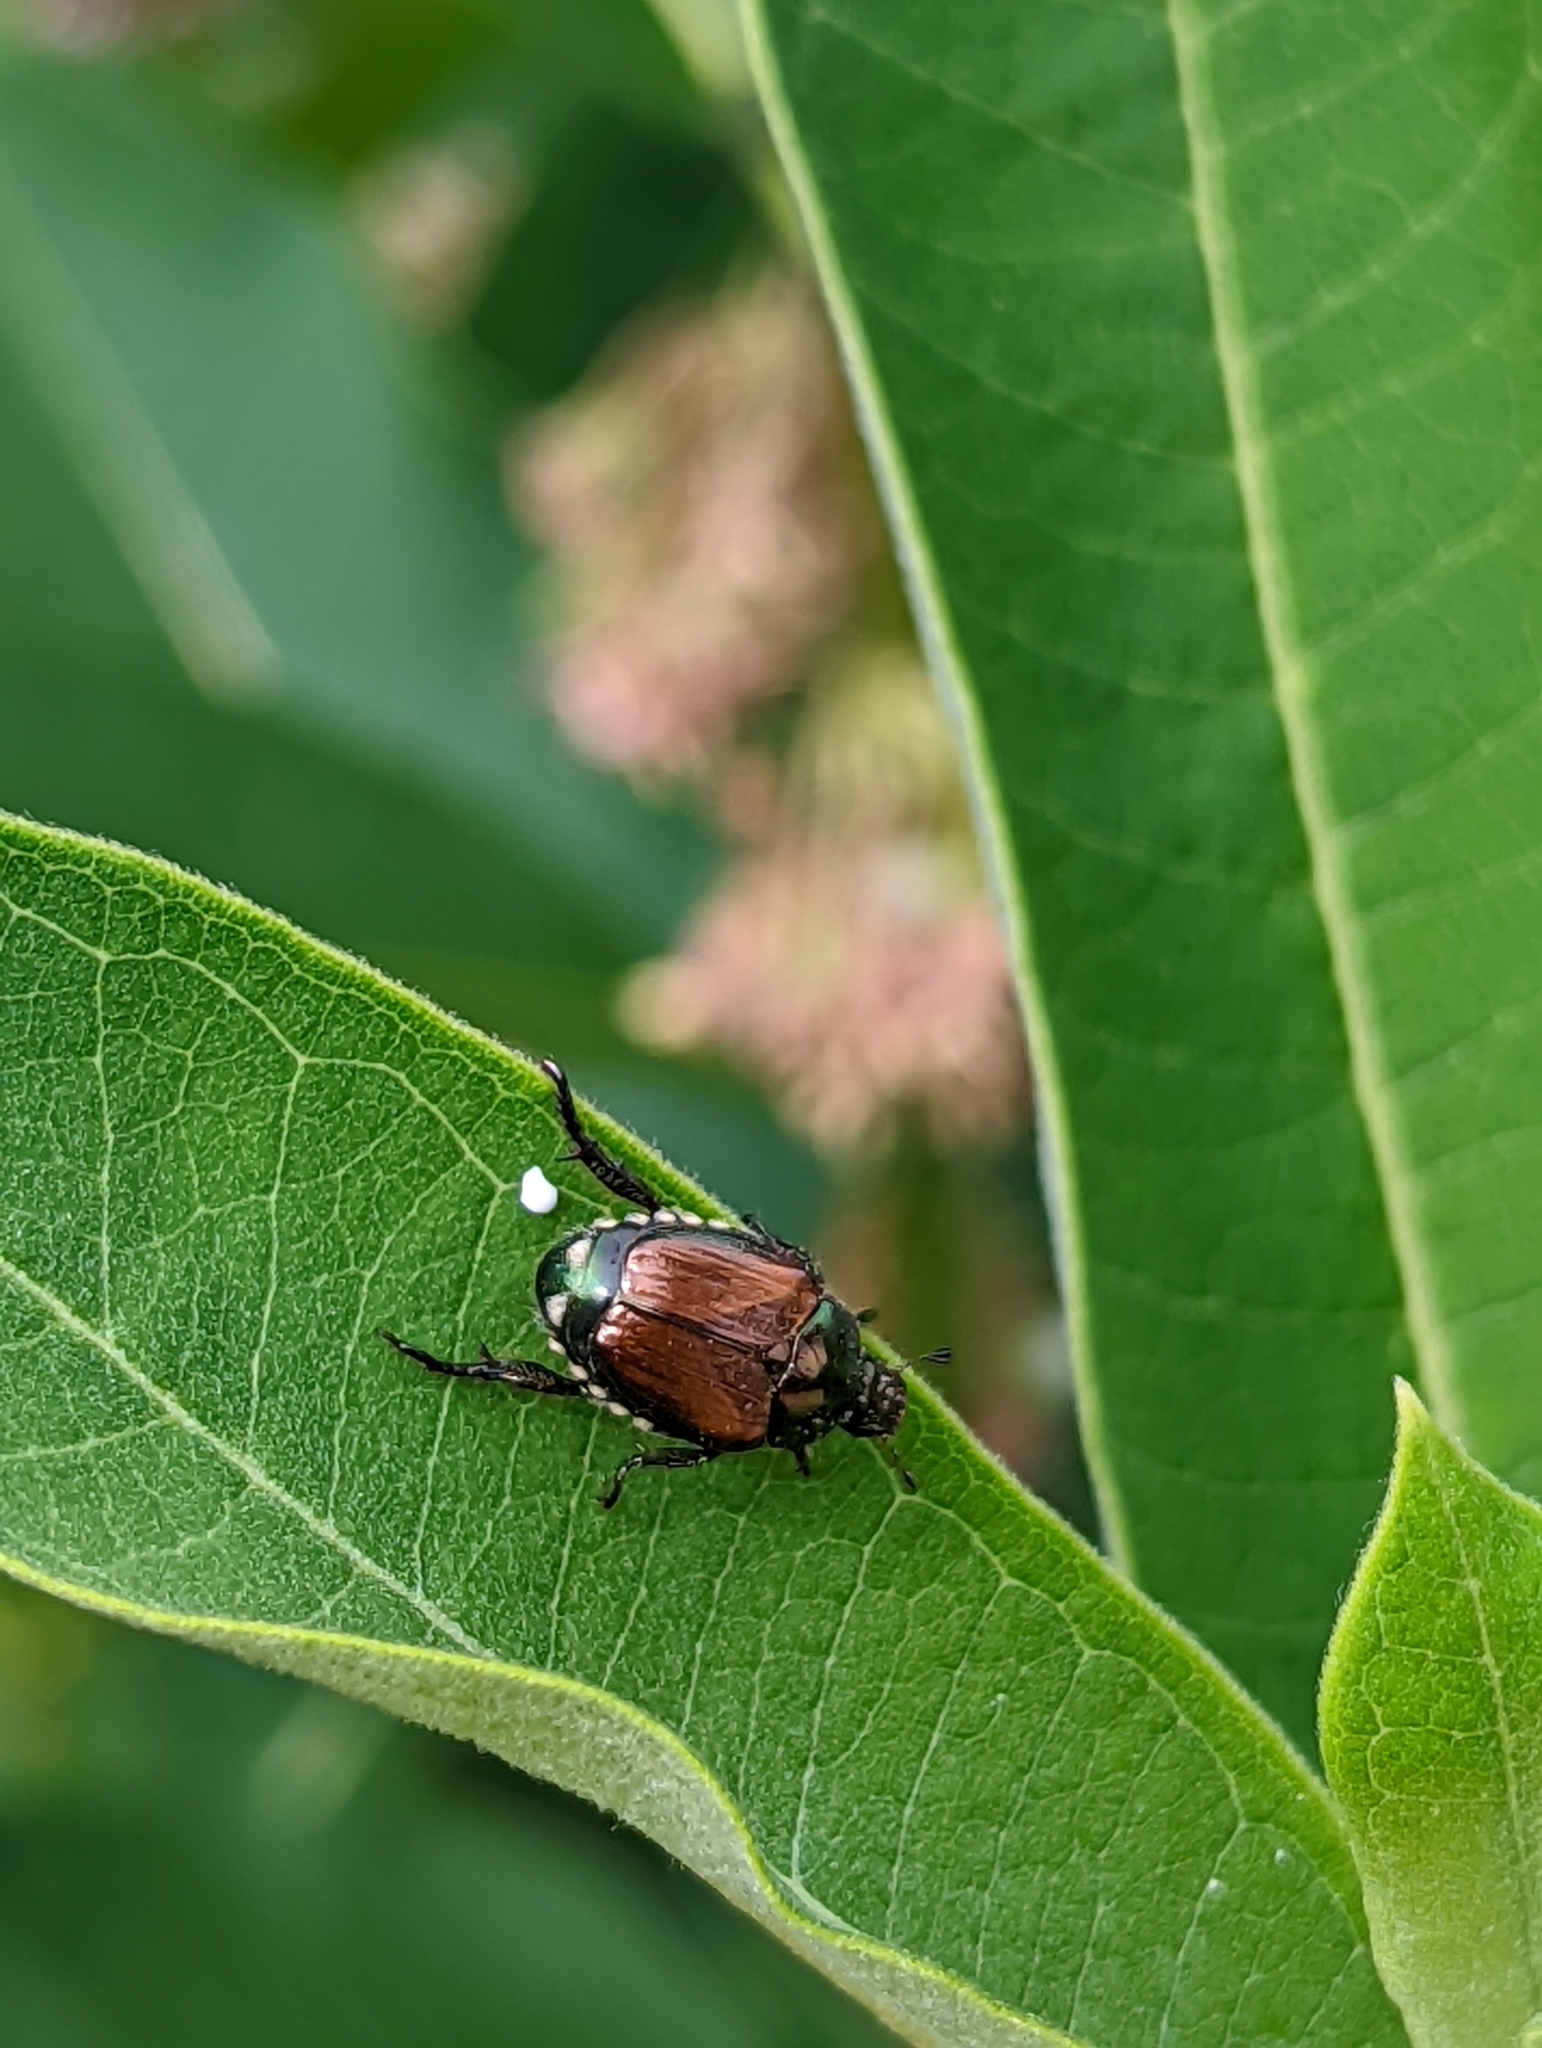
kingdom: Animalia
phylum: Arthropoda
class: Insecta
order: Coleoptera
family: Scarabaeidae
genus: Popillia
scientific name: Popillia japonica
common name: Japanese beetle
